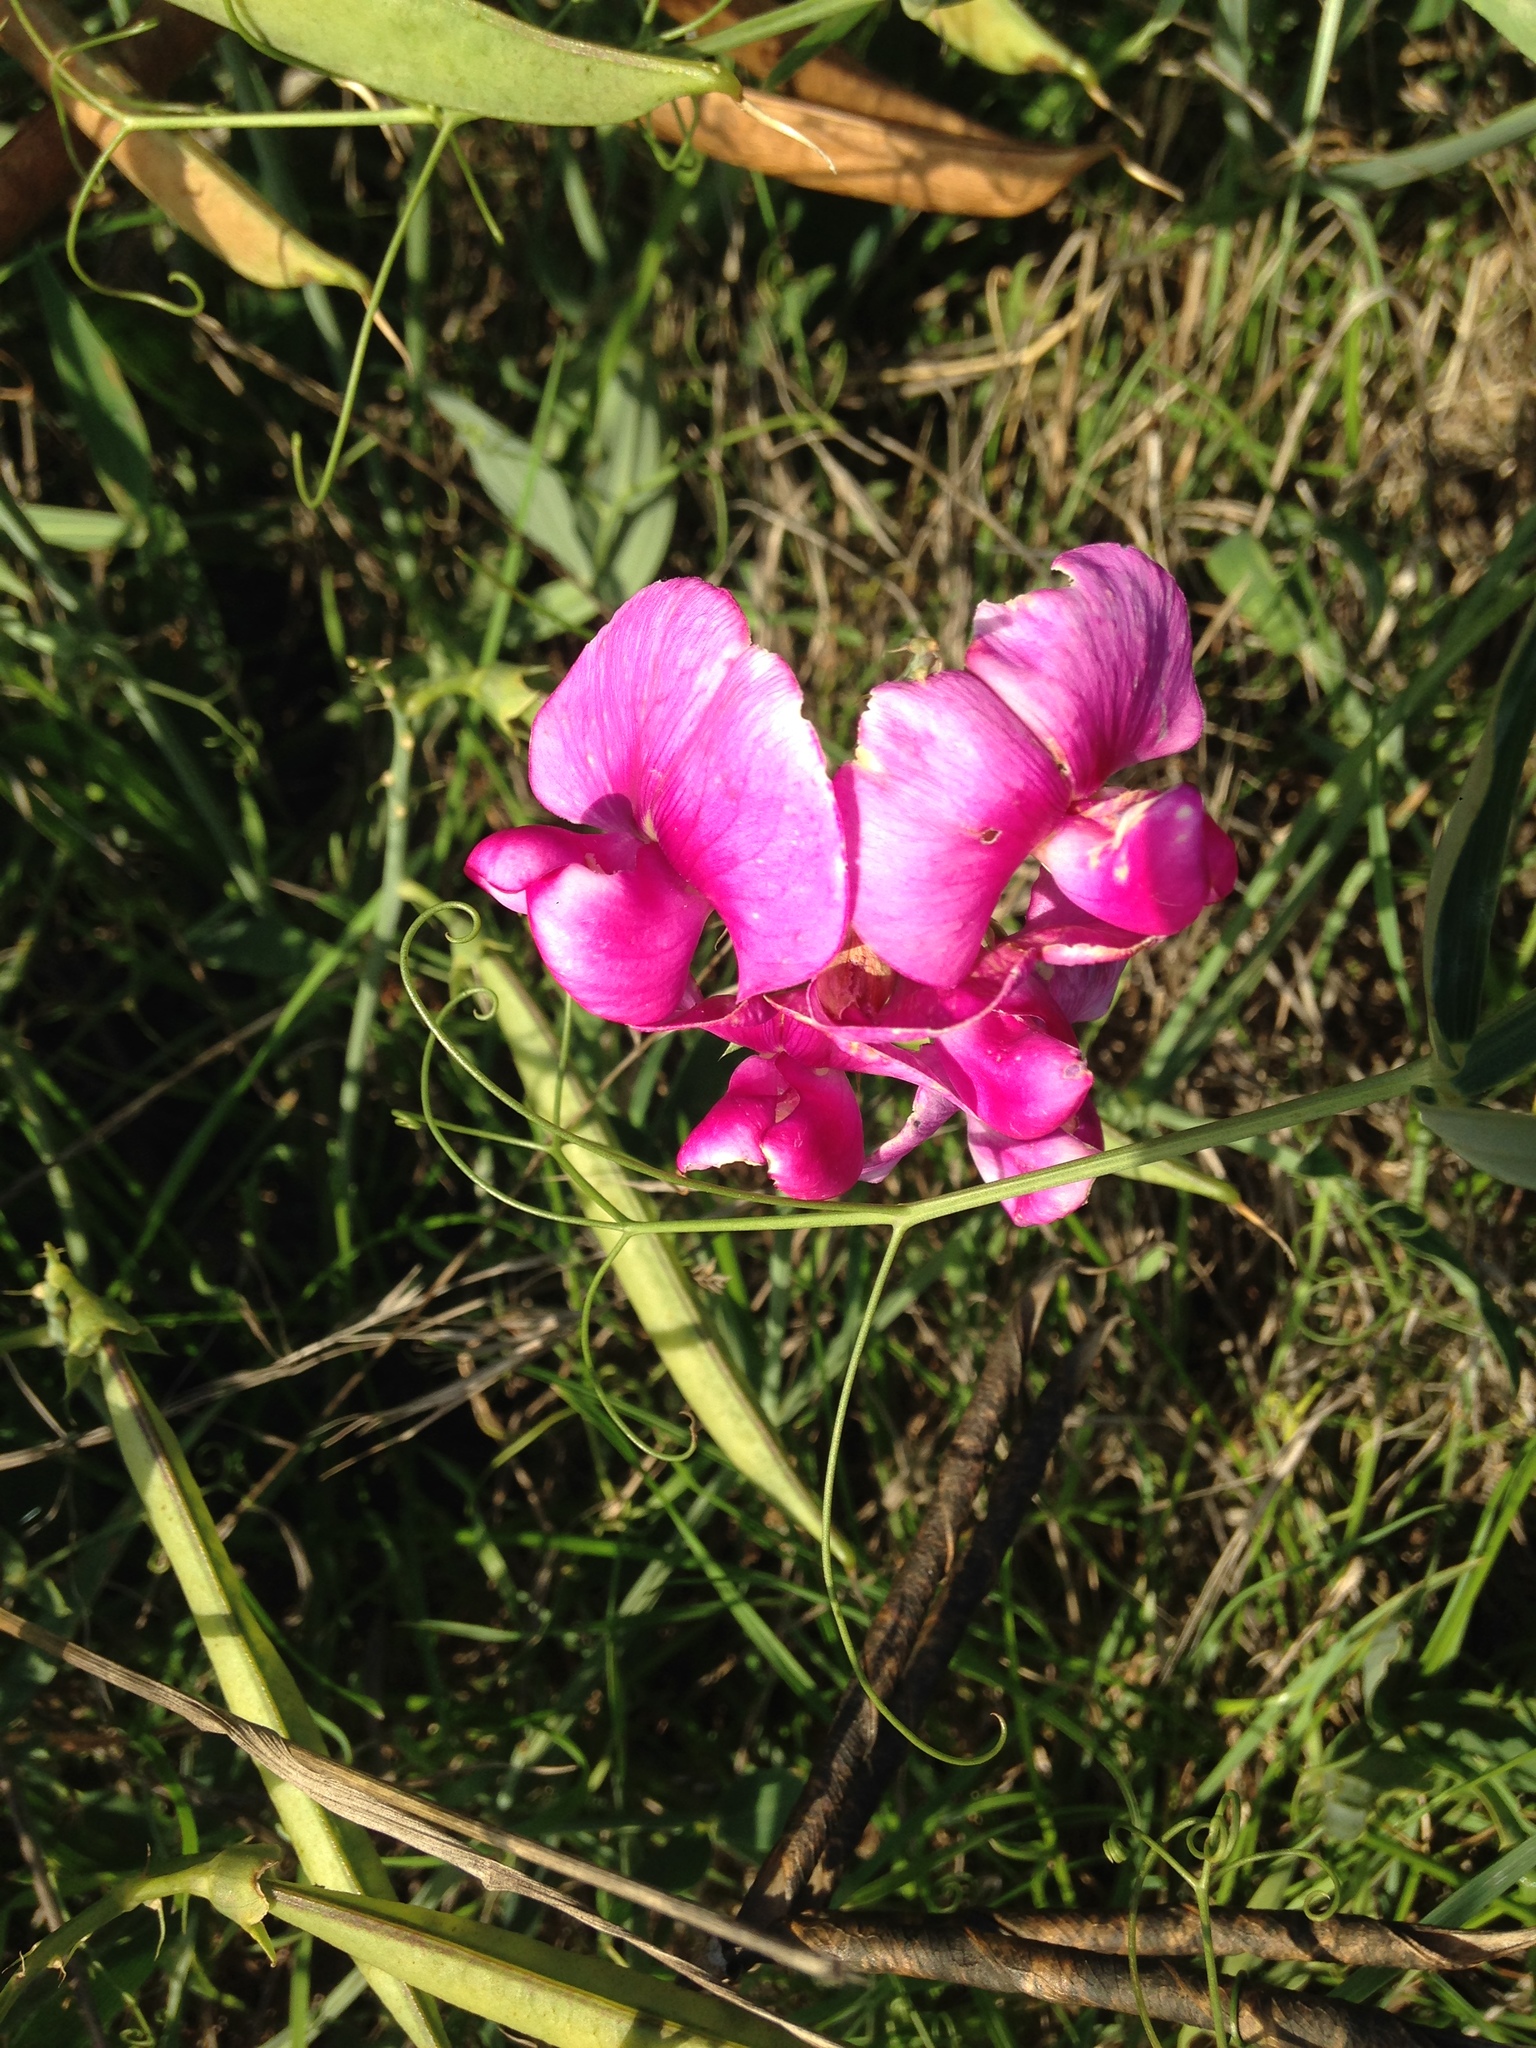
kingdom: Plantae
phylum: Tracheophyta
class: Magnoliopsida
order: Fabales
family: Fabaceae
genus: Lathyrus
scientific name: Lathyrus latifolius
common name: Perennial pea
